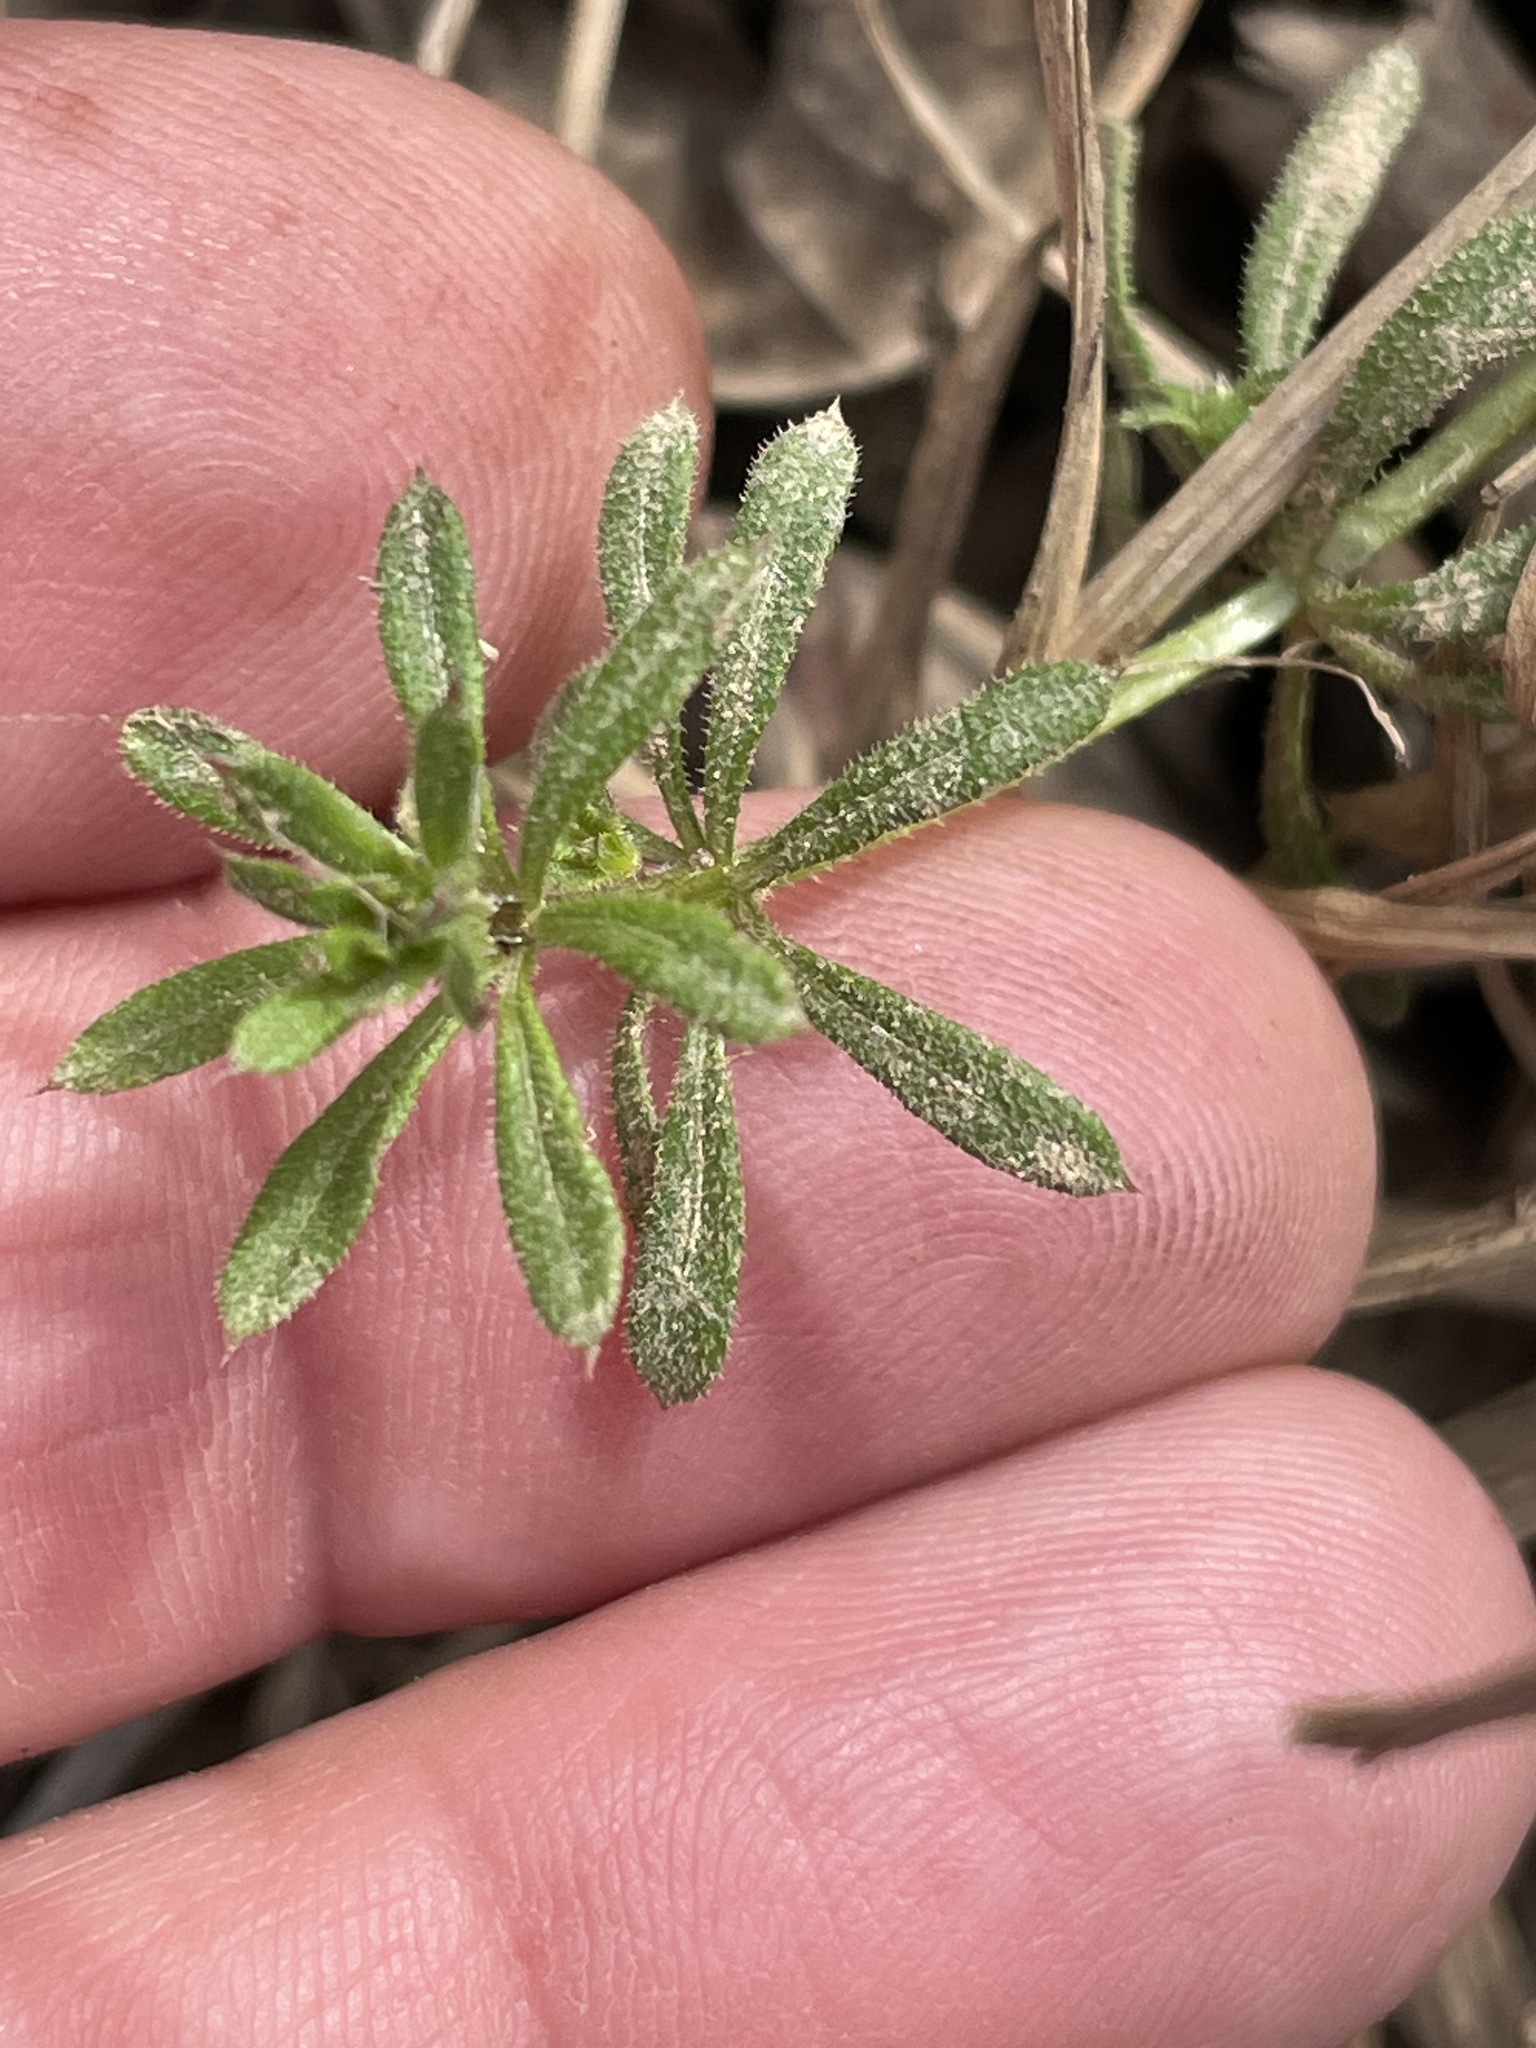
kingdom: Plantae
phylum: Tracheophyta
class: Magnoliopsida
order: Gentianales
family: Rubiaceae
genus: Galium
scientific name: Galium aparine
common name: Cleavers
